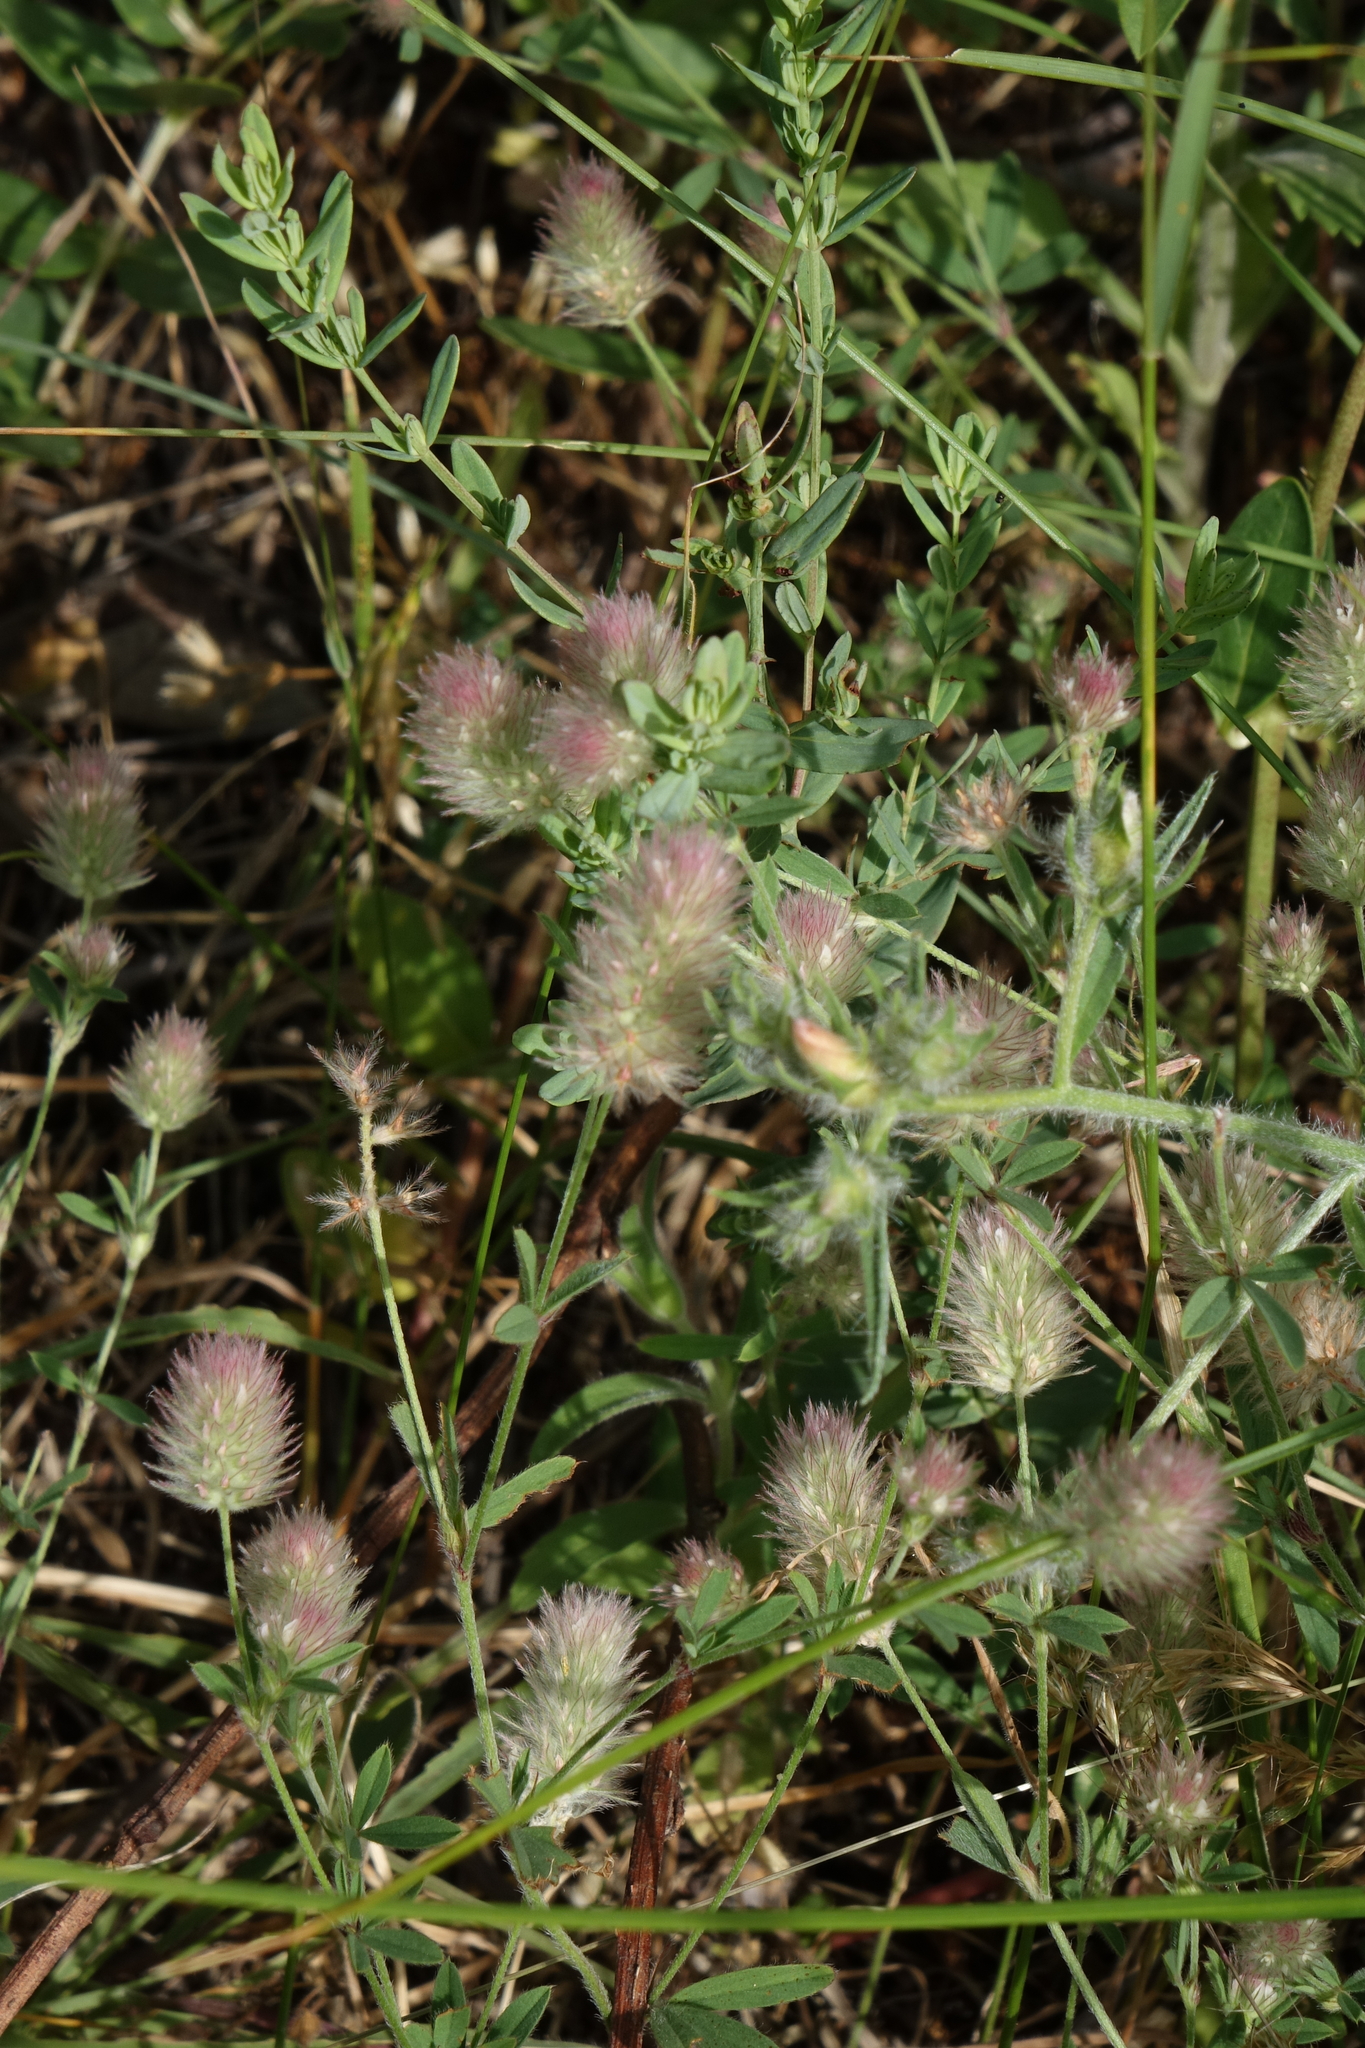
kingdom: Plantae
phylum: Tracheophyta
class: Magnoliopsida
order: Fabales
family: Fabaceae
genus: Trifolium
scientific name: Trifolium arvense
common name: Hare's-foot clover
